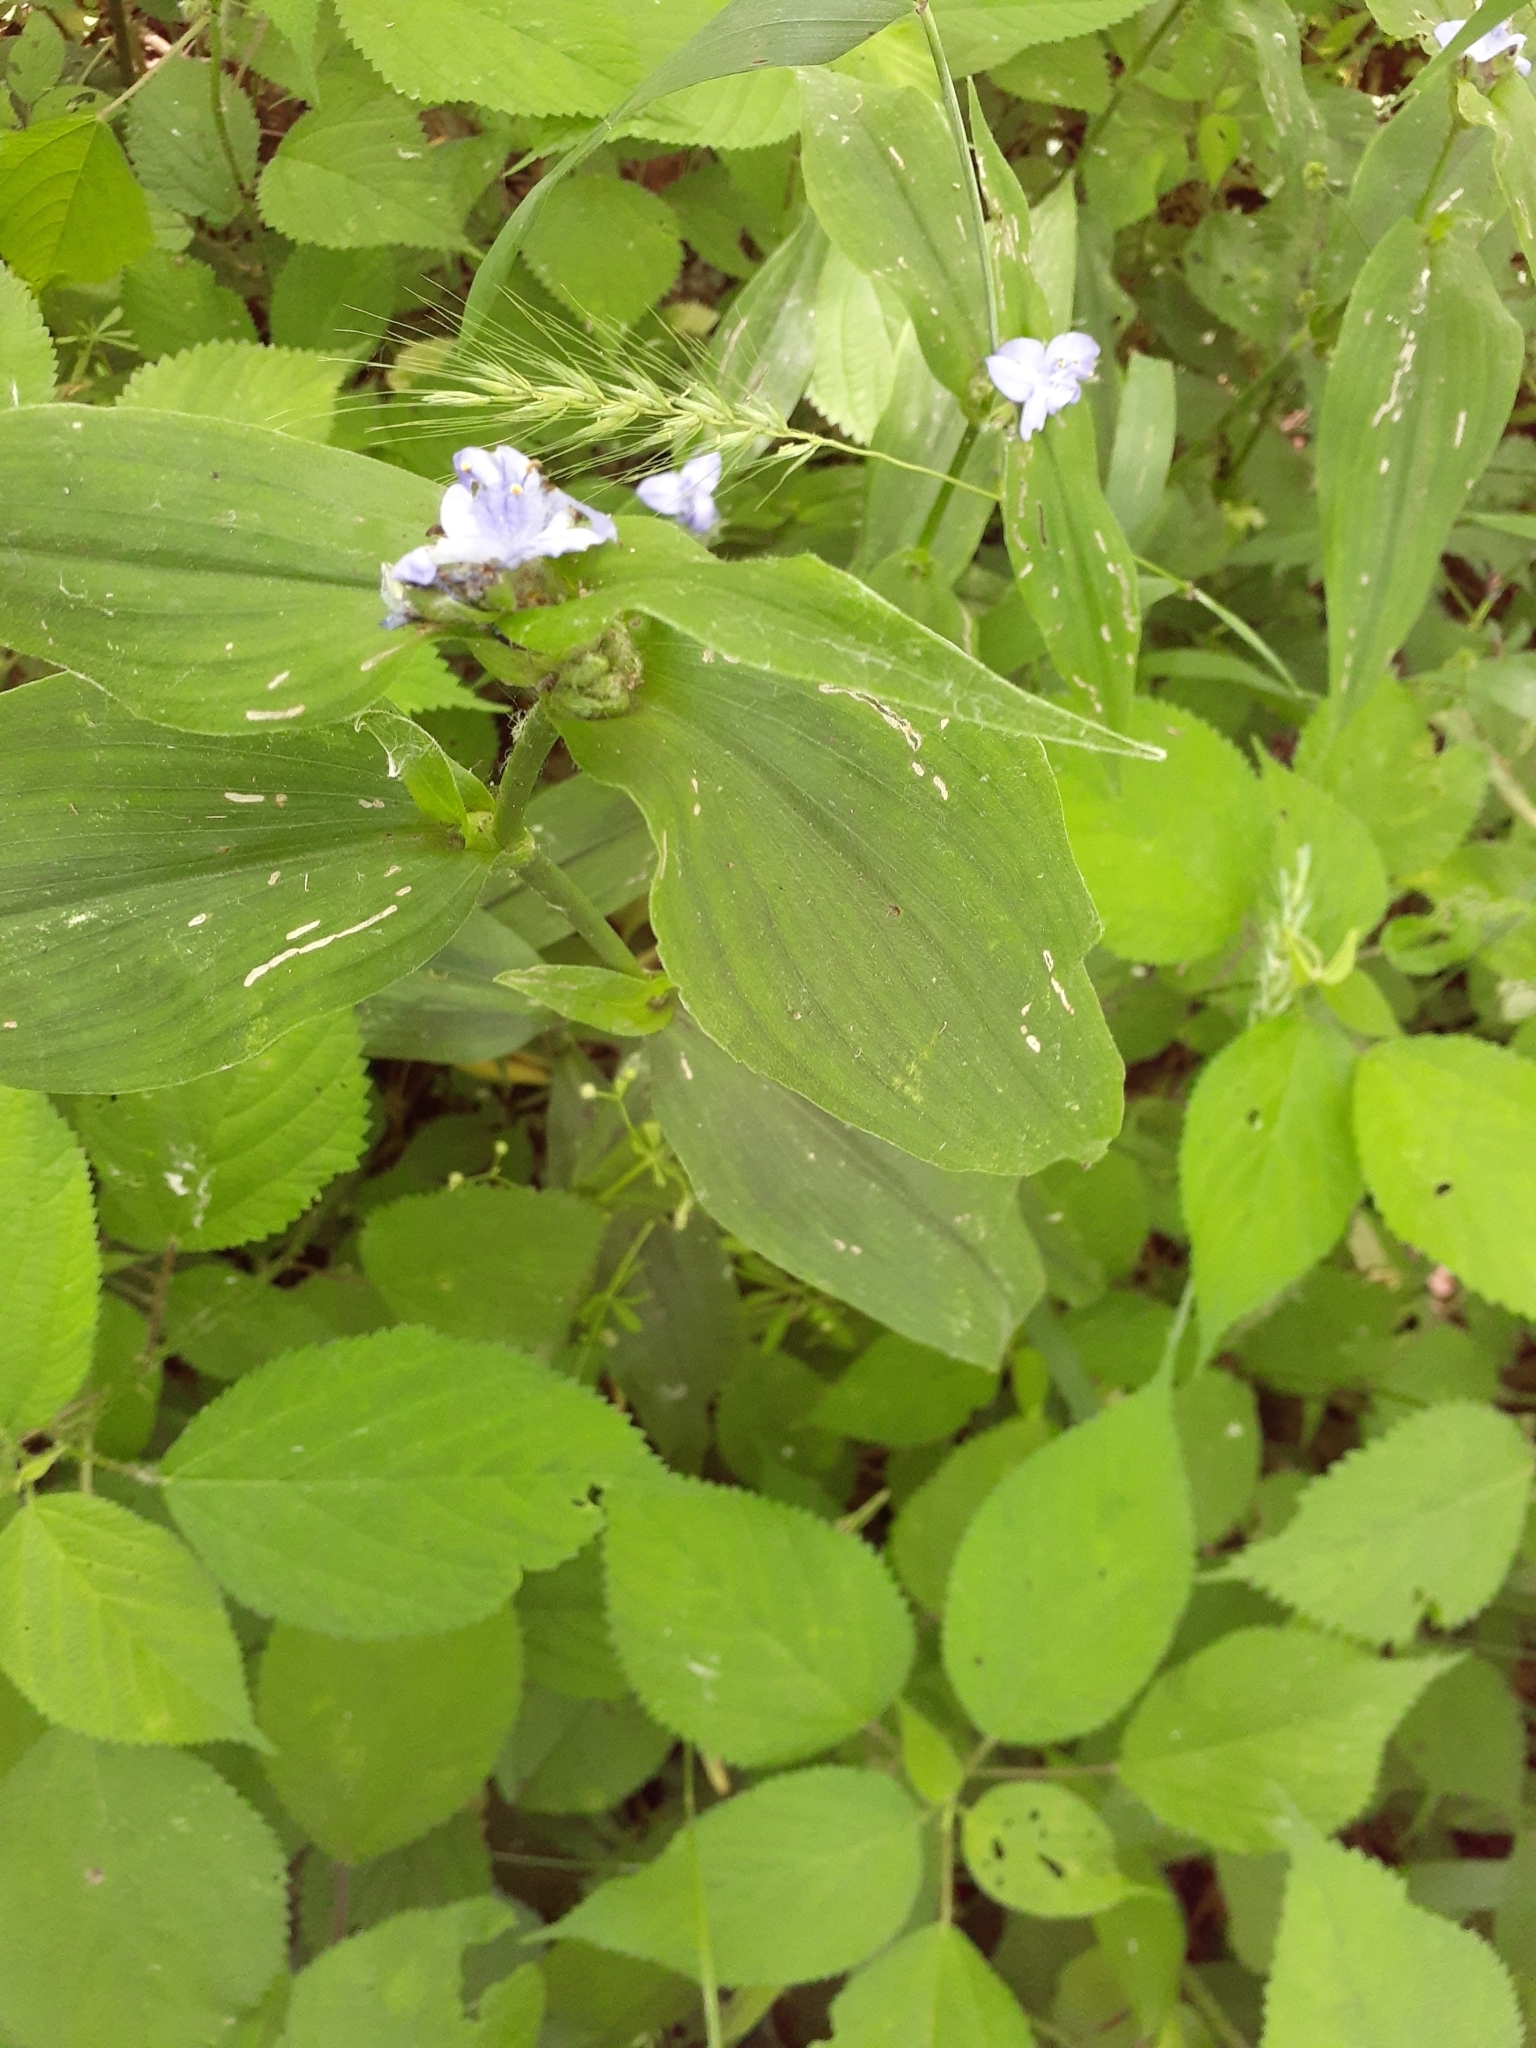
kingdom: Plantae
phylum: Tracheophyta
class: Liliopsida
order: Commelinales
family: Commelinaceae
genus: Tradescantia
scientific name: Tradescantia subaspera
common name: Wide-leaf spiderwort
